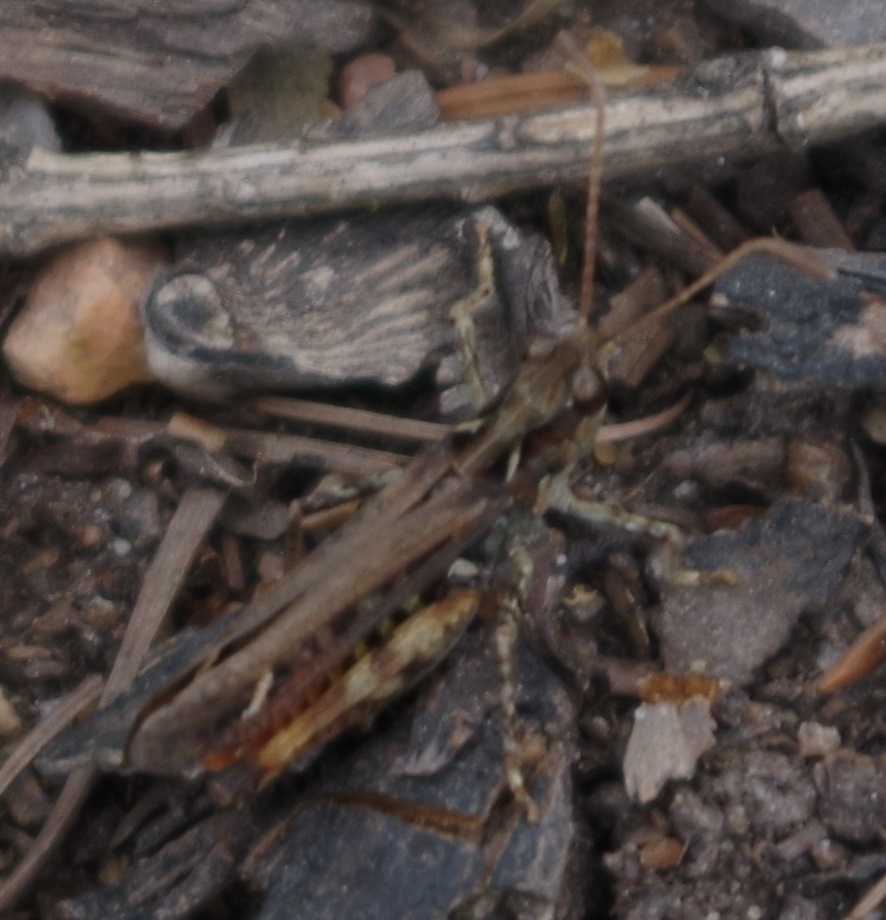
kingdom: Animalia
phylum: Arthropoda
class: Insecta
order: Orthoptera
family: Acrididae
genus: Myrmeleotettix
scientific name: Myrmeleotettix maculatus
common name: Mottled grasshopper
